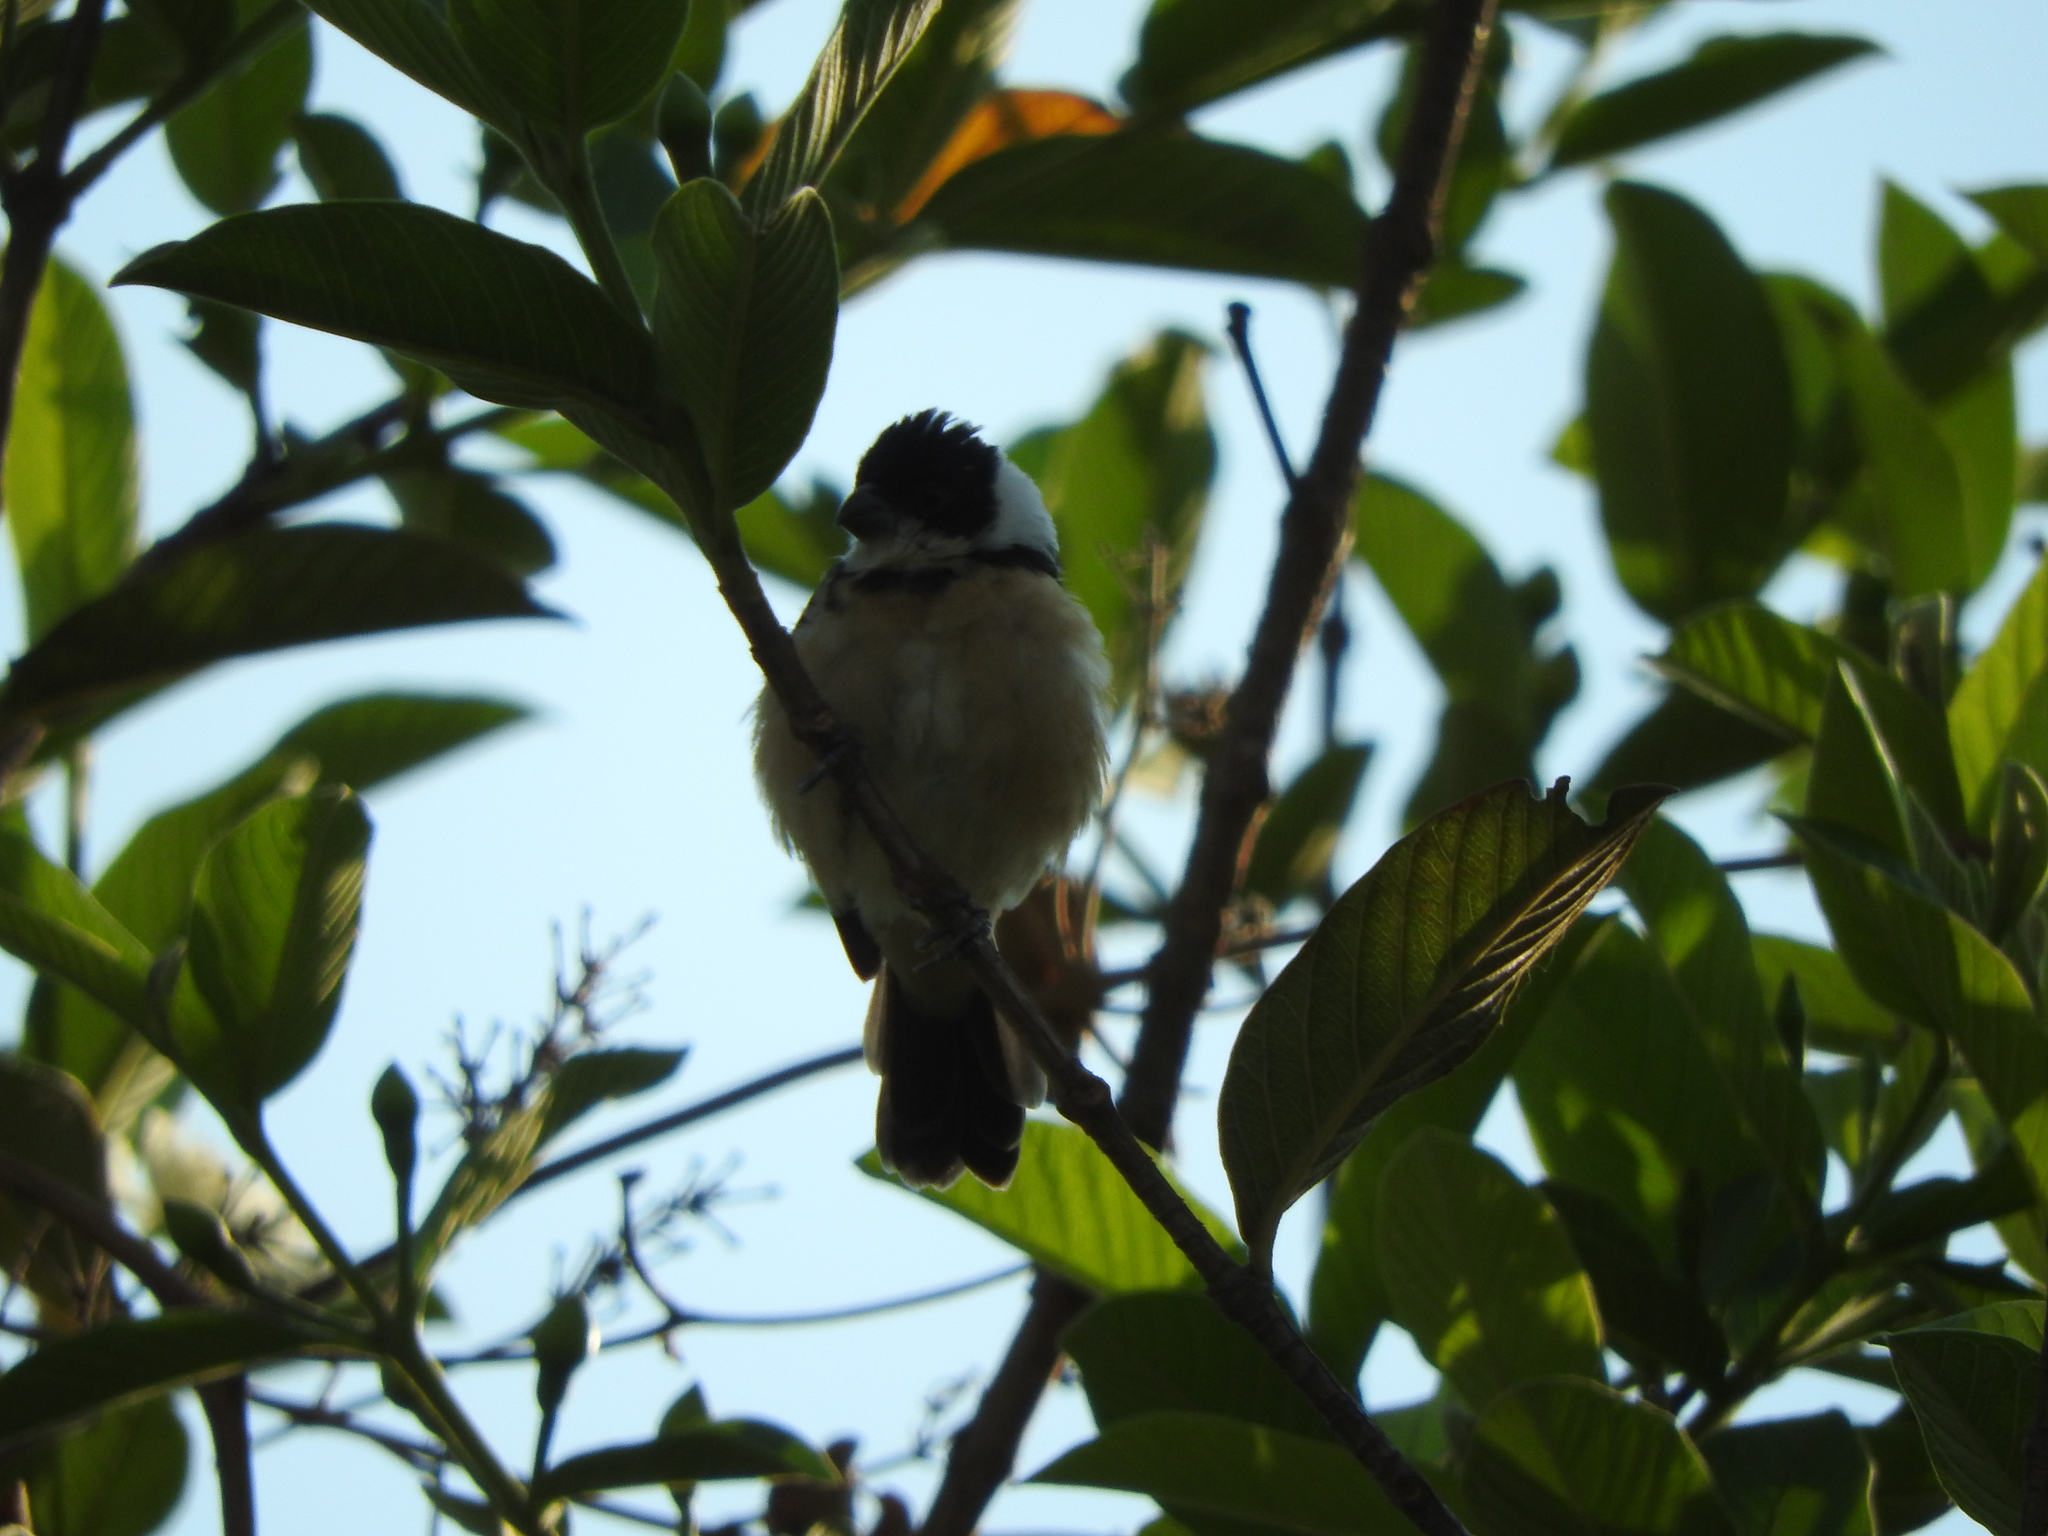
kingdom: Animalia
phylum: Chordata
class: Aves
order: Passeriformes
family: Thraupidae
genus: Sporophila
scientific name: Sporophila torqueola
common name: White-collared seedeater
